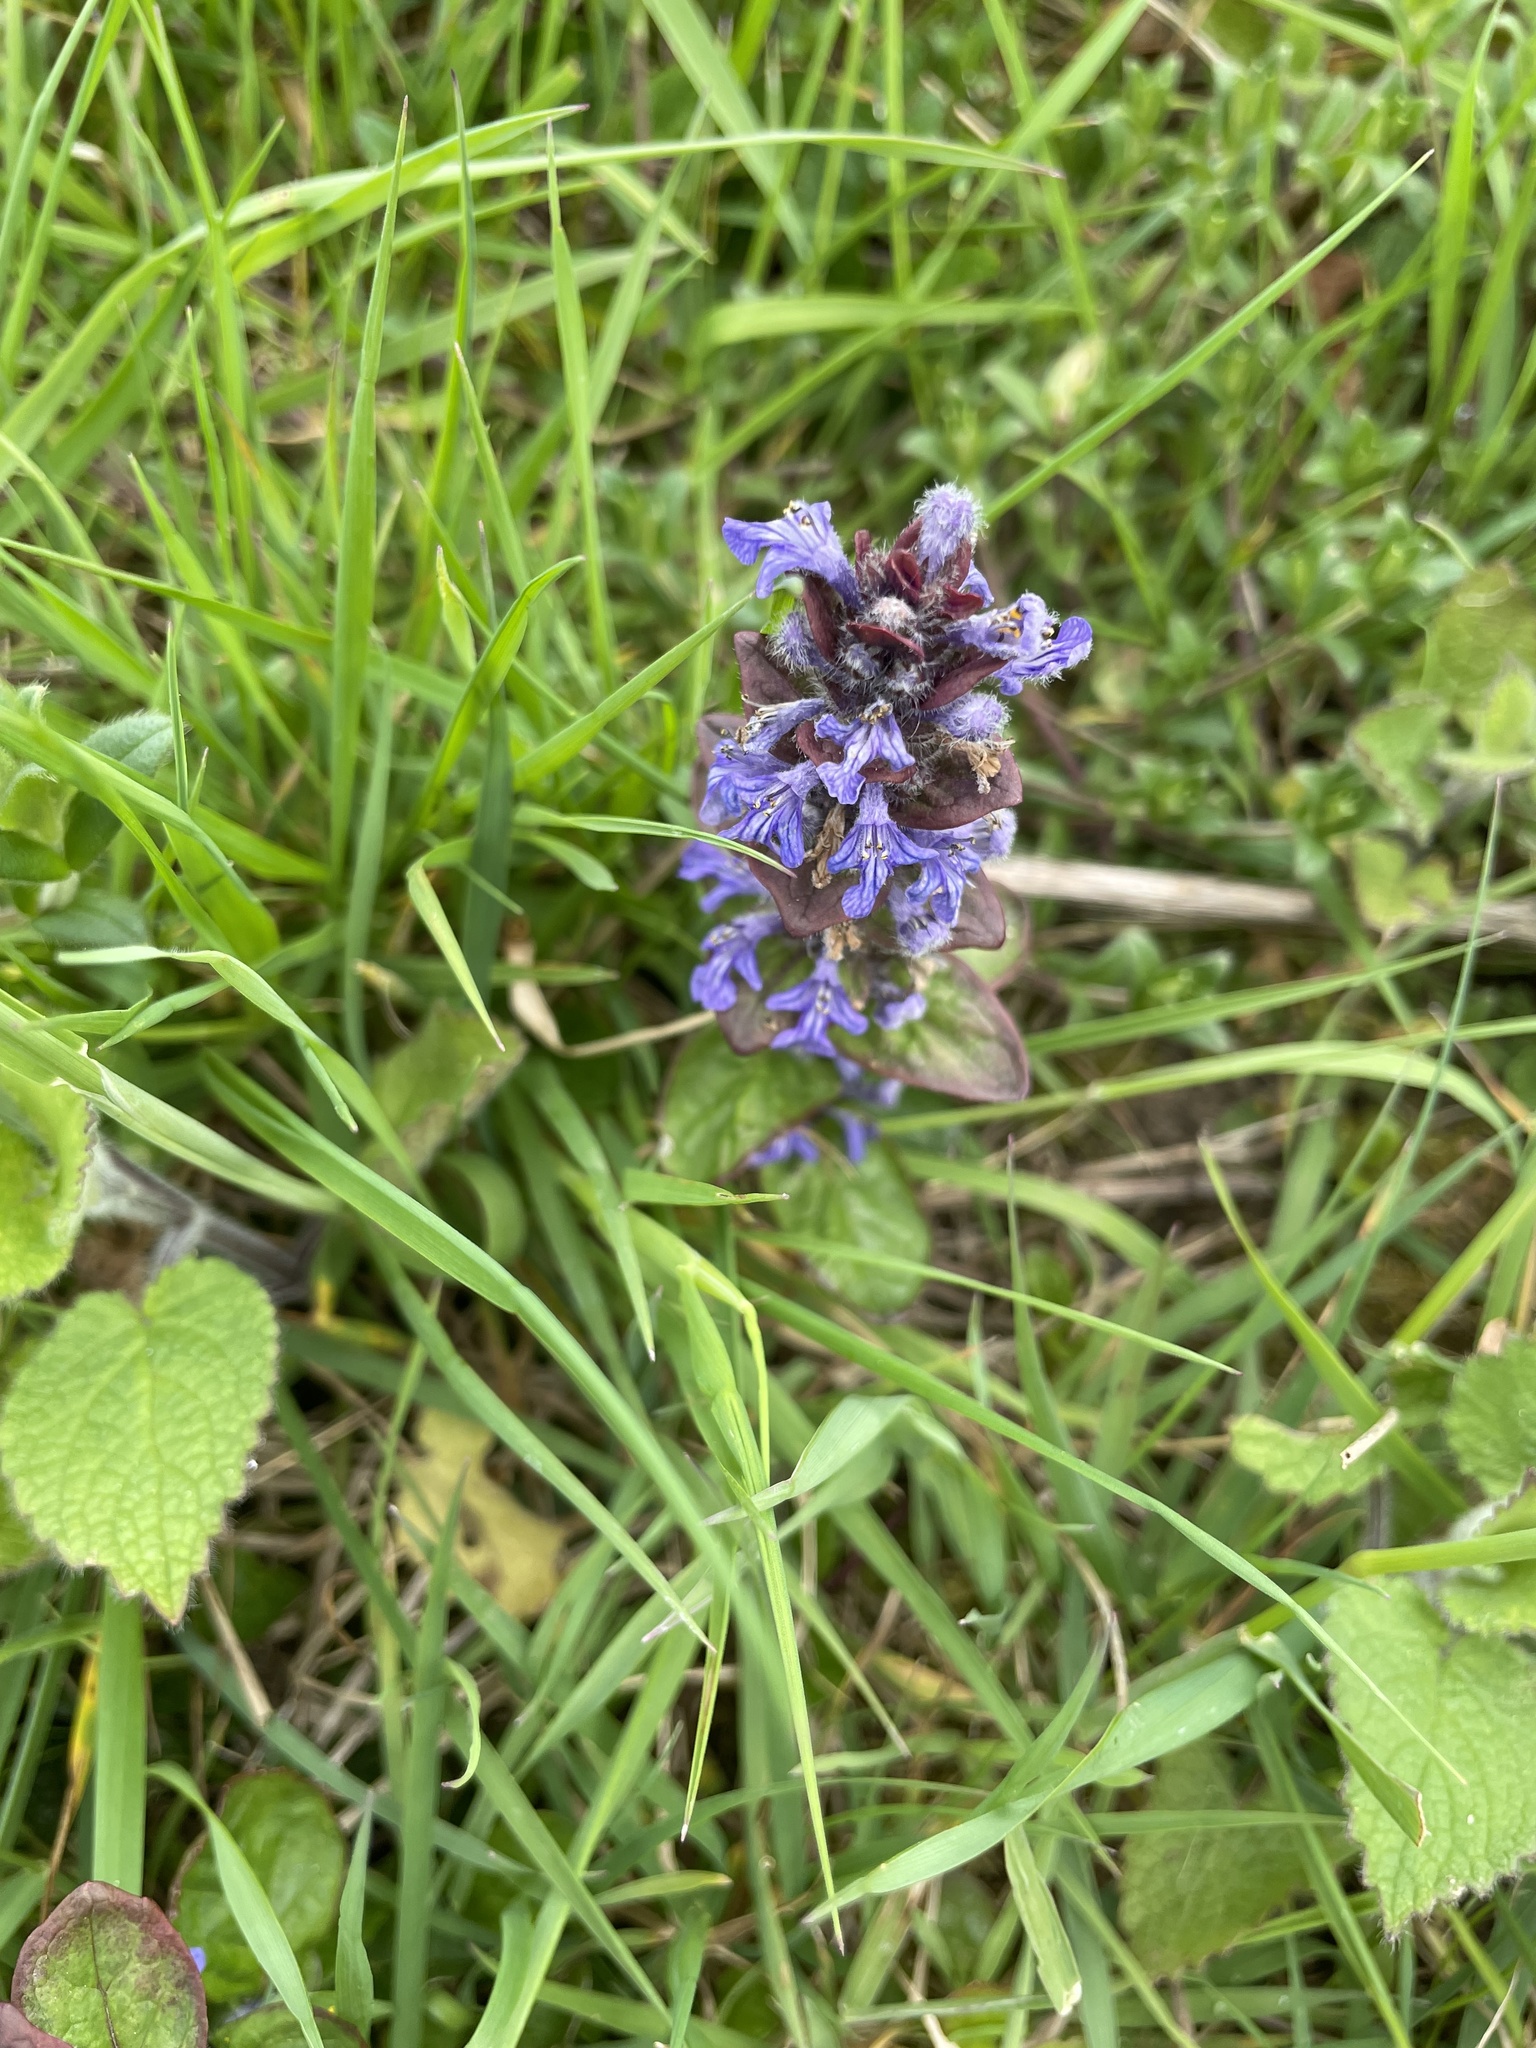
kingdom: Plantae
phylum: Tracheophyta
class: Magnoliopsida
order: Lamiales
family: Lamiaceae
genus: Ajuga
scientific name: Ajuga reptans
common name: Bugle
